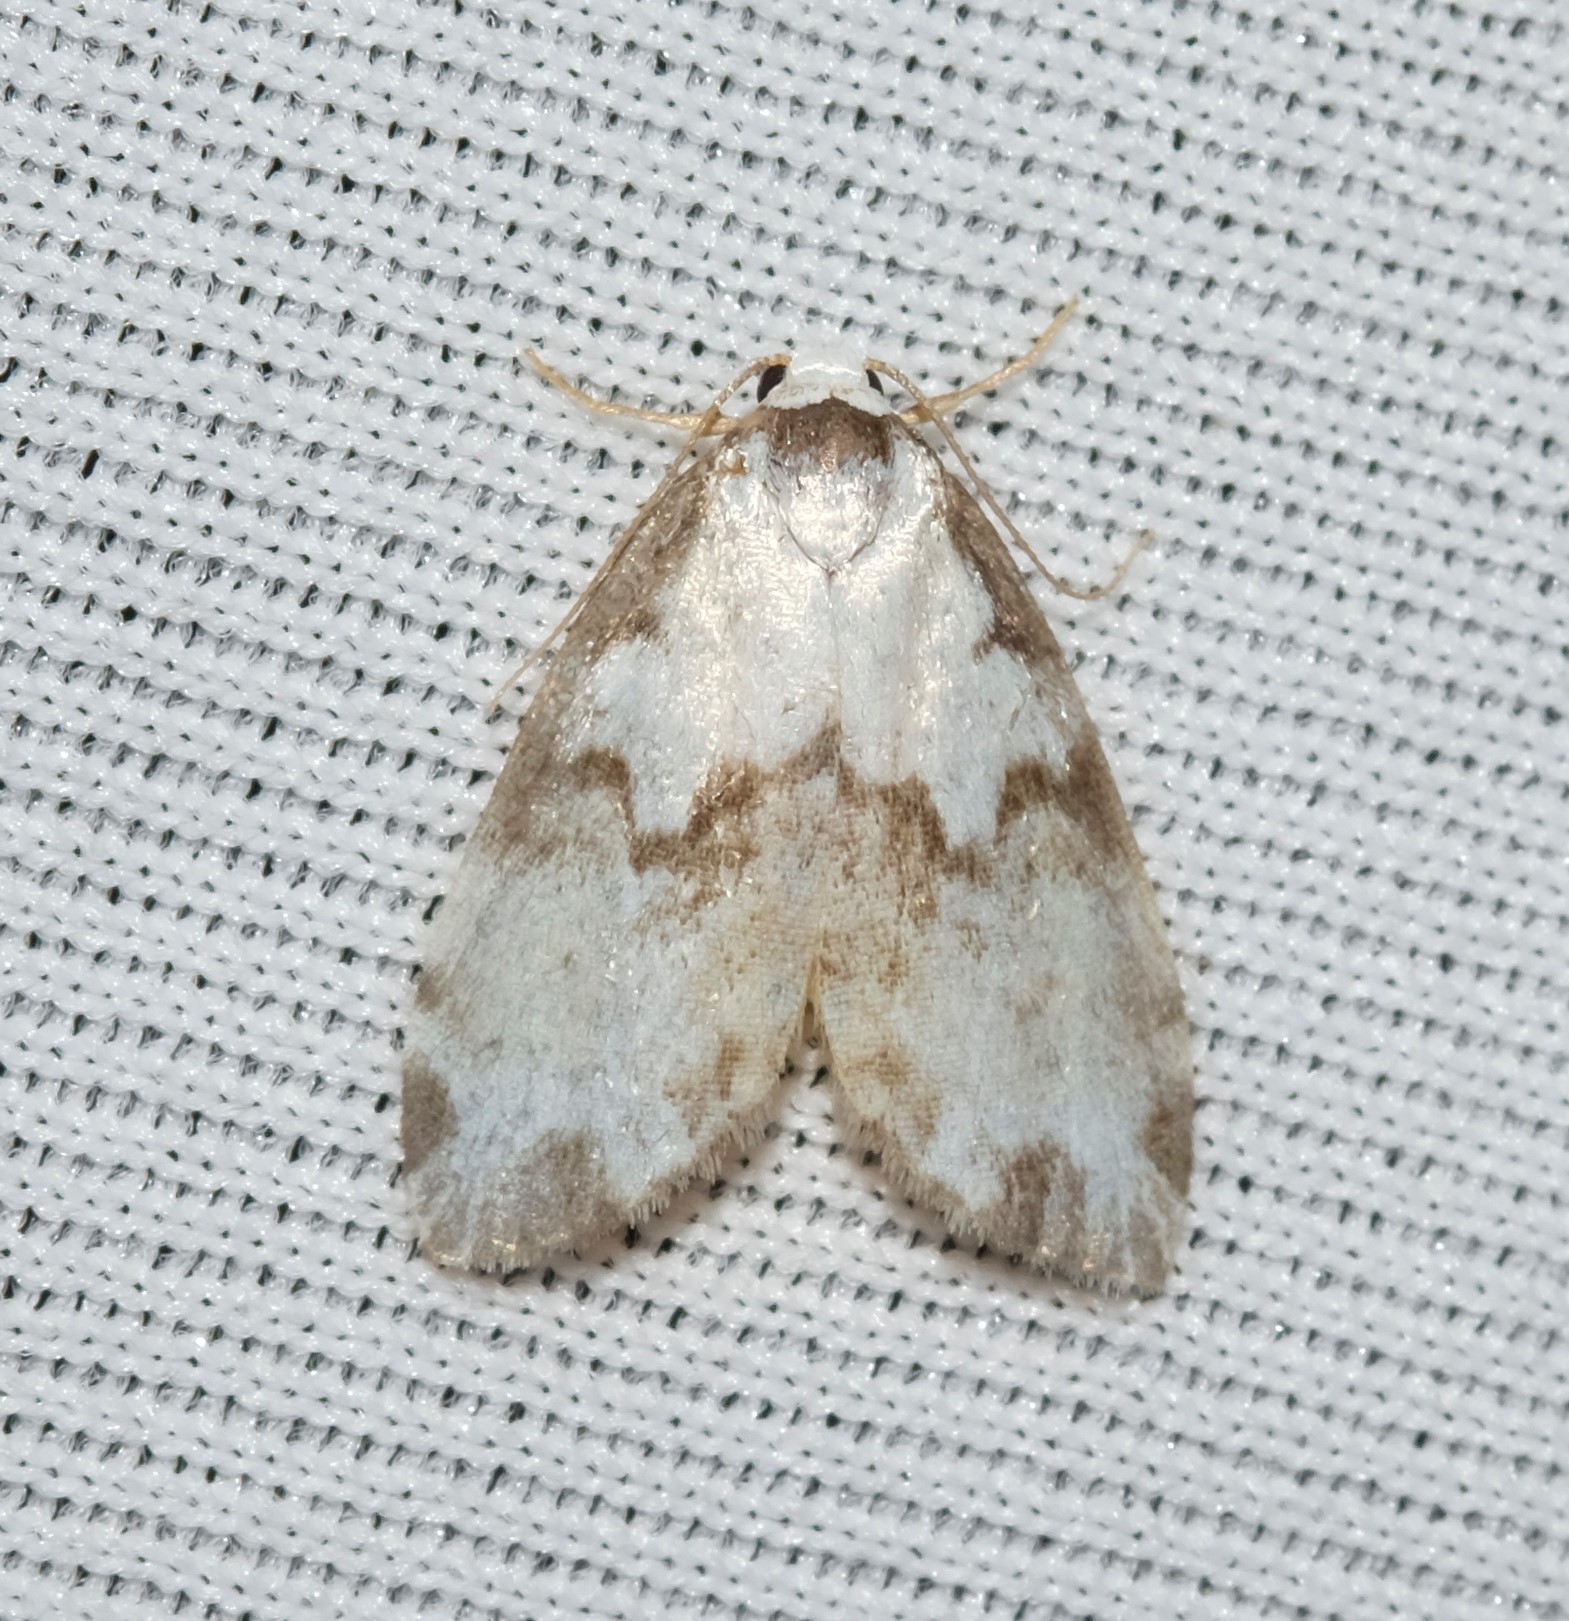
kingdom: Animalia
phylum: Arthropoda
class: Insecta
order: Lepidoptera
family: Erebidae
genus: Thallarcha
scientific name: Thallarcha epiostola
